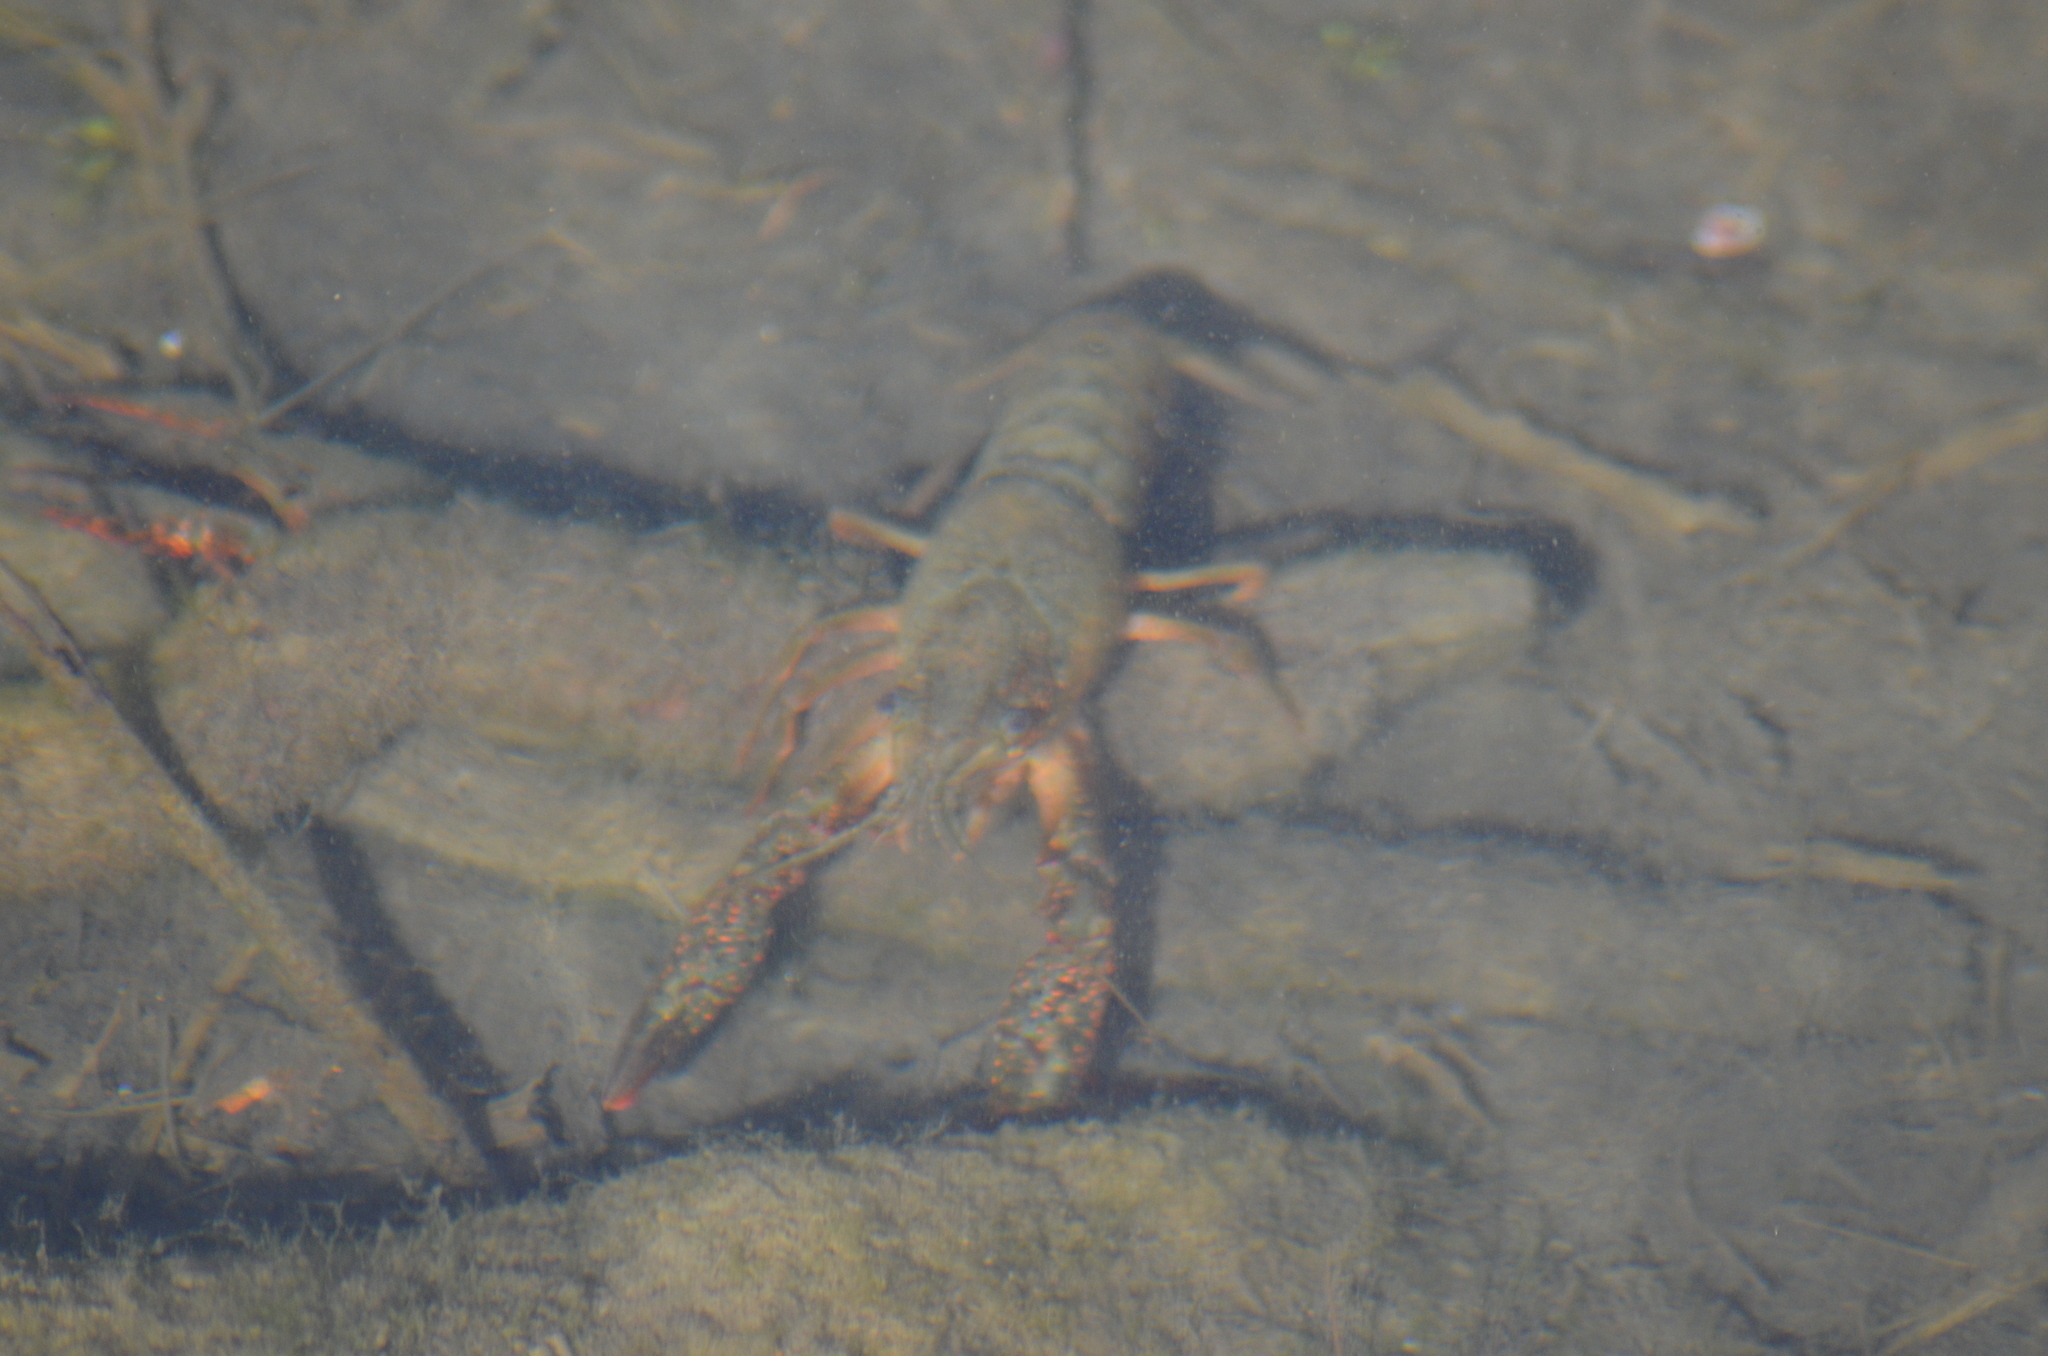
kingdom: Animalia
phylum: Arthropoda
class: Malacostraca
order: Decapoda
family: Cambaridae
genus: Procambarus
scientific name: Procambarus clarkii
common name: Red swamp crayfish
